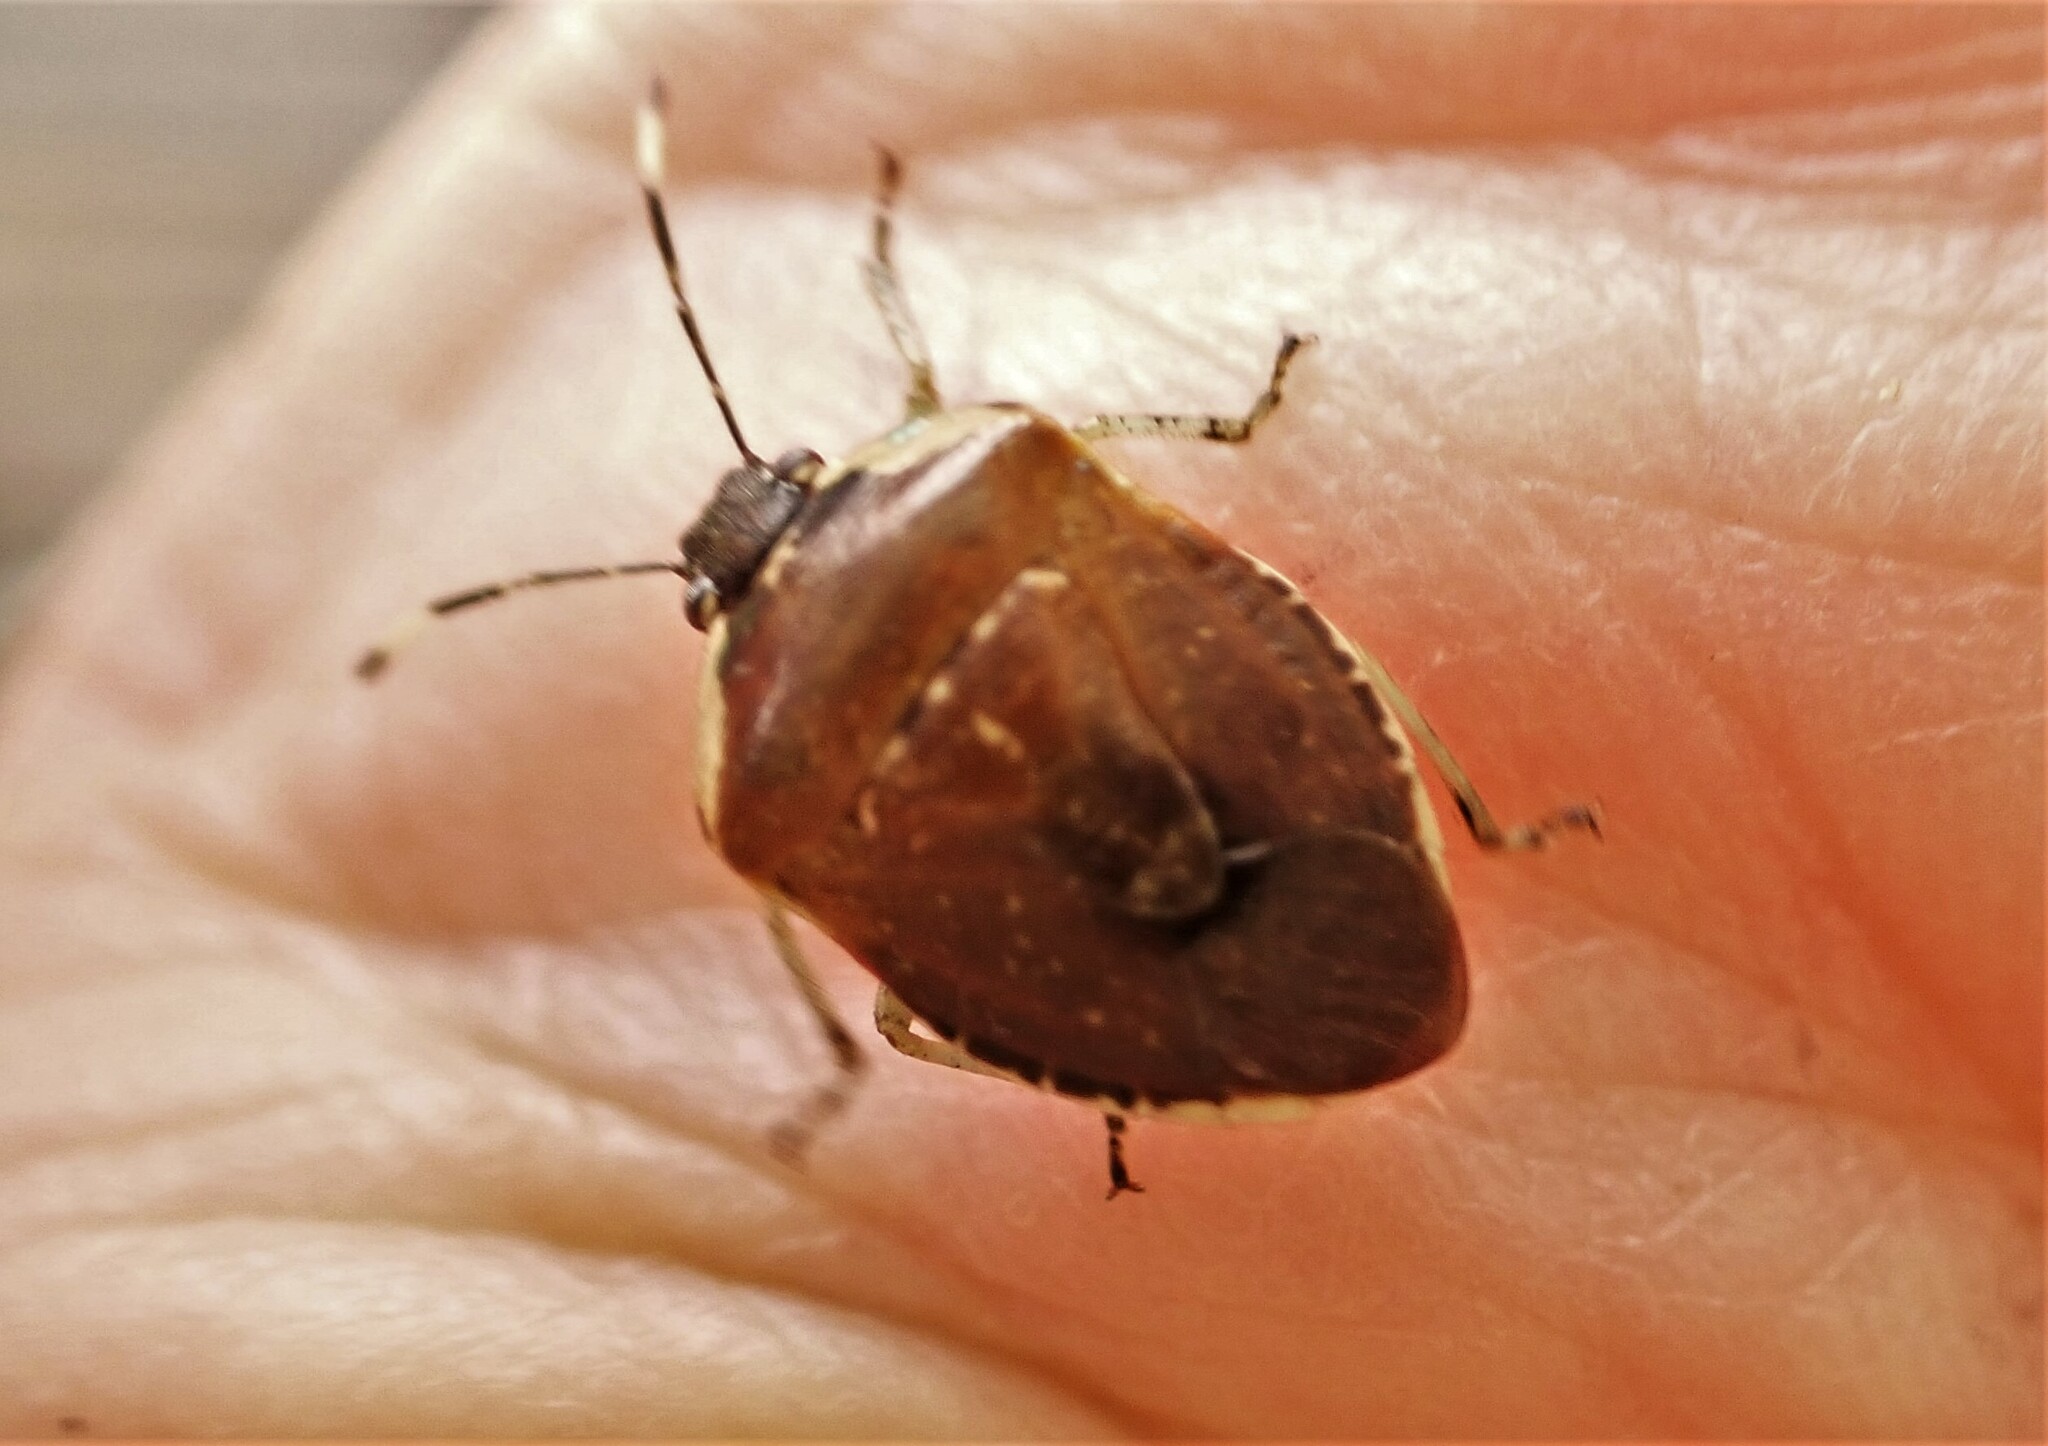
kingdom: Animalia
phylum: Arthropoda
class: Insecta
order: Hemiptera
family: Pentatomidae
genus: Monteithiella
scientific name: Monteithiella
